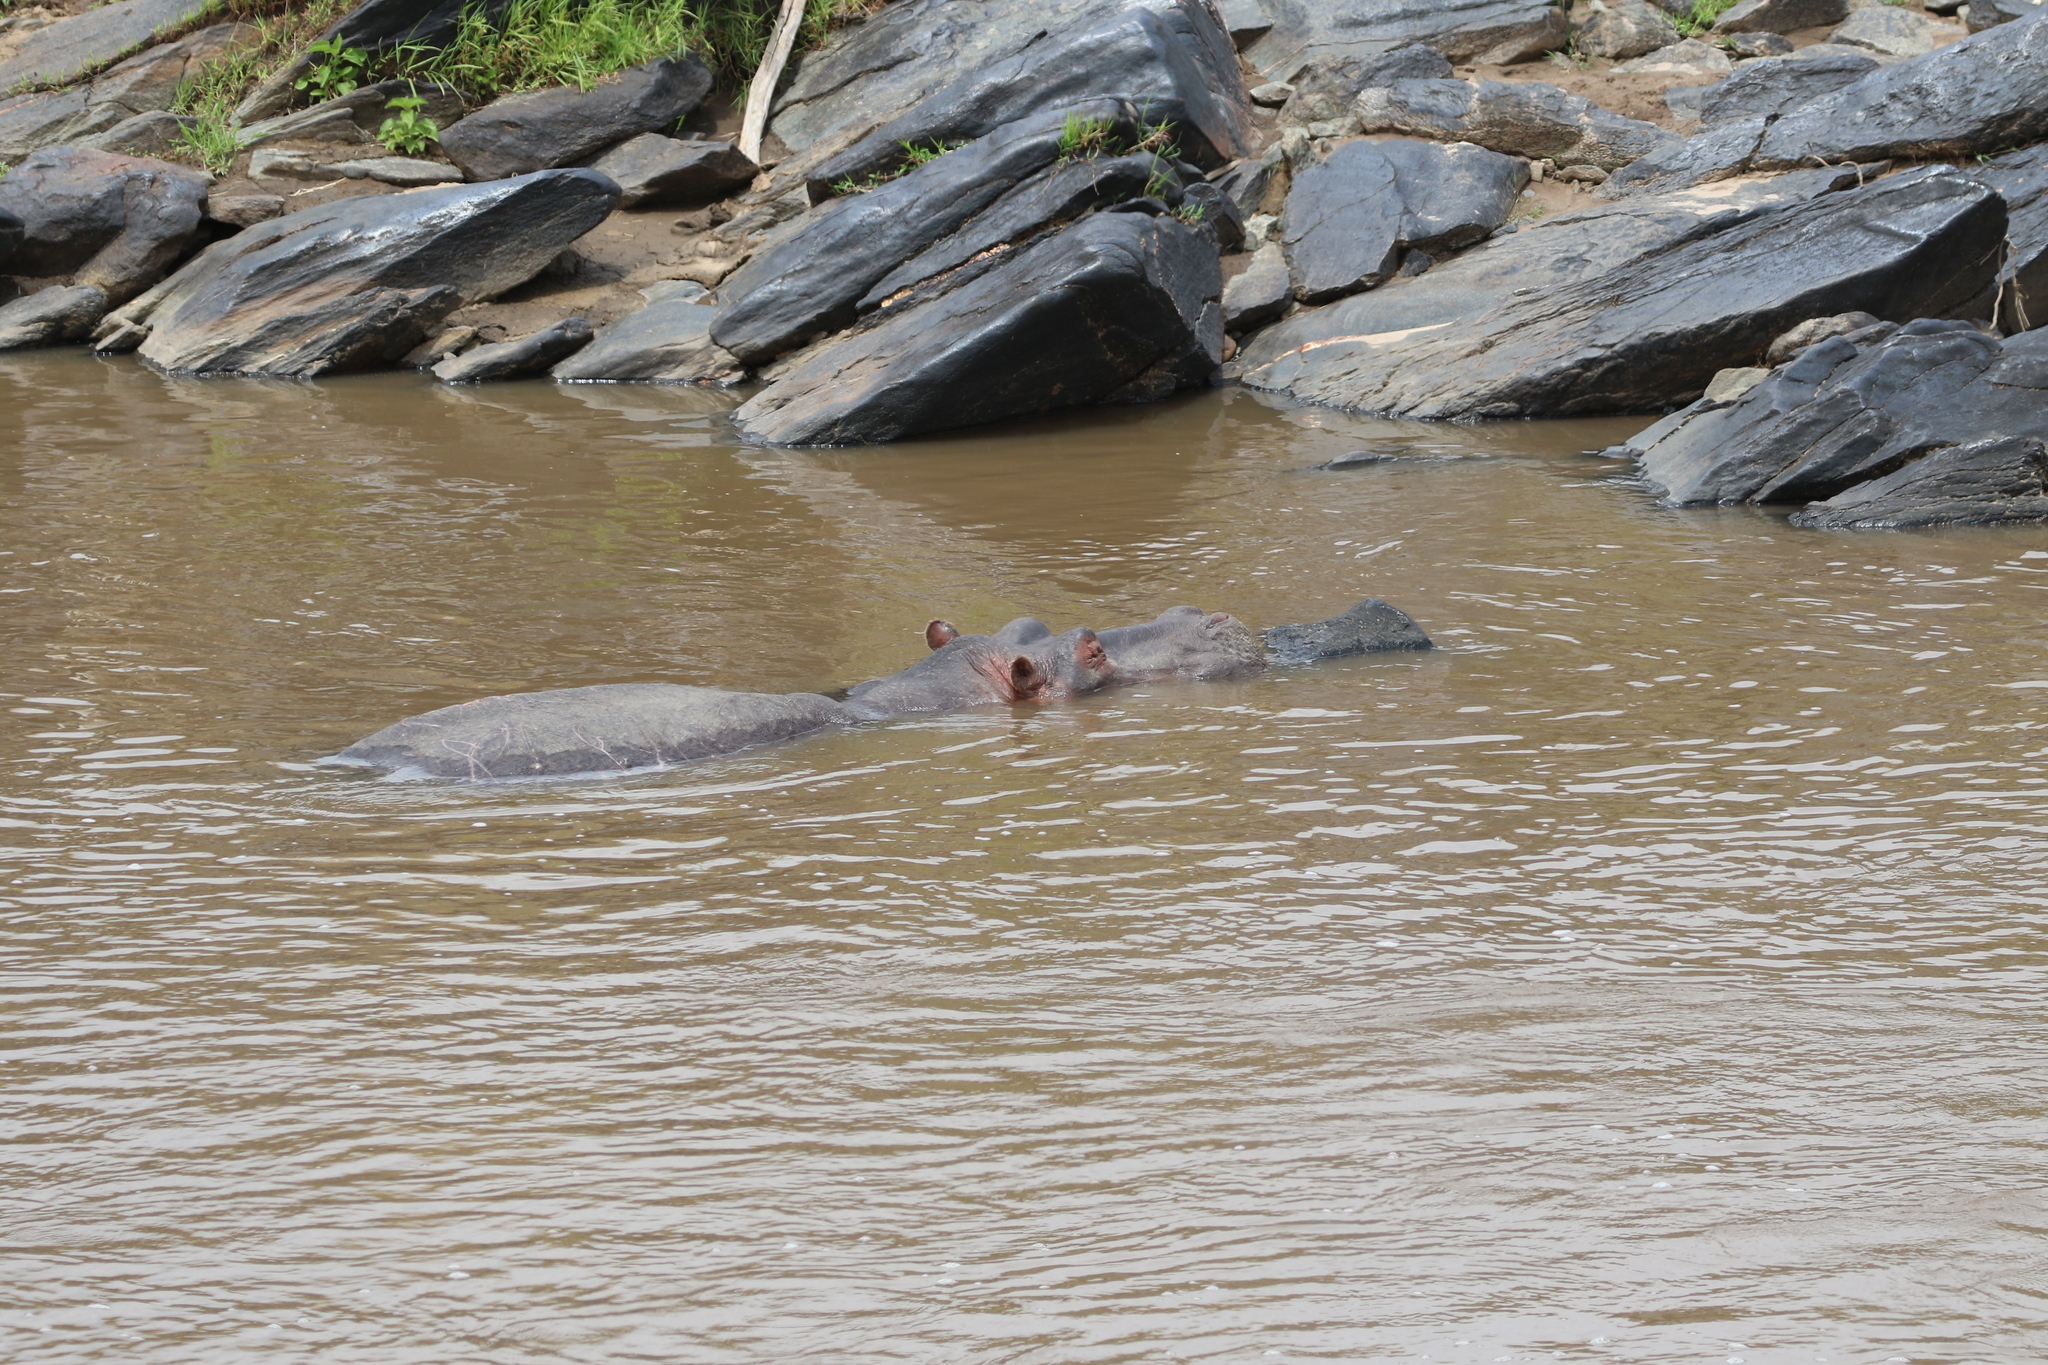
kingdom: Animalia
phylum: Chordata
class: Mammalia
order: Artiodactyla
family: Hippopotamidae
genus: Hippopotamus
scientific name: Hippopotamus amphibius
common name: Common hippopotamus
